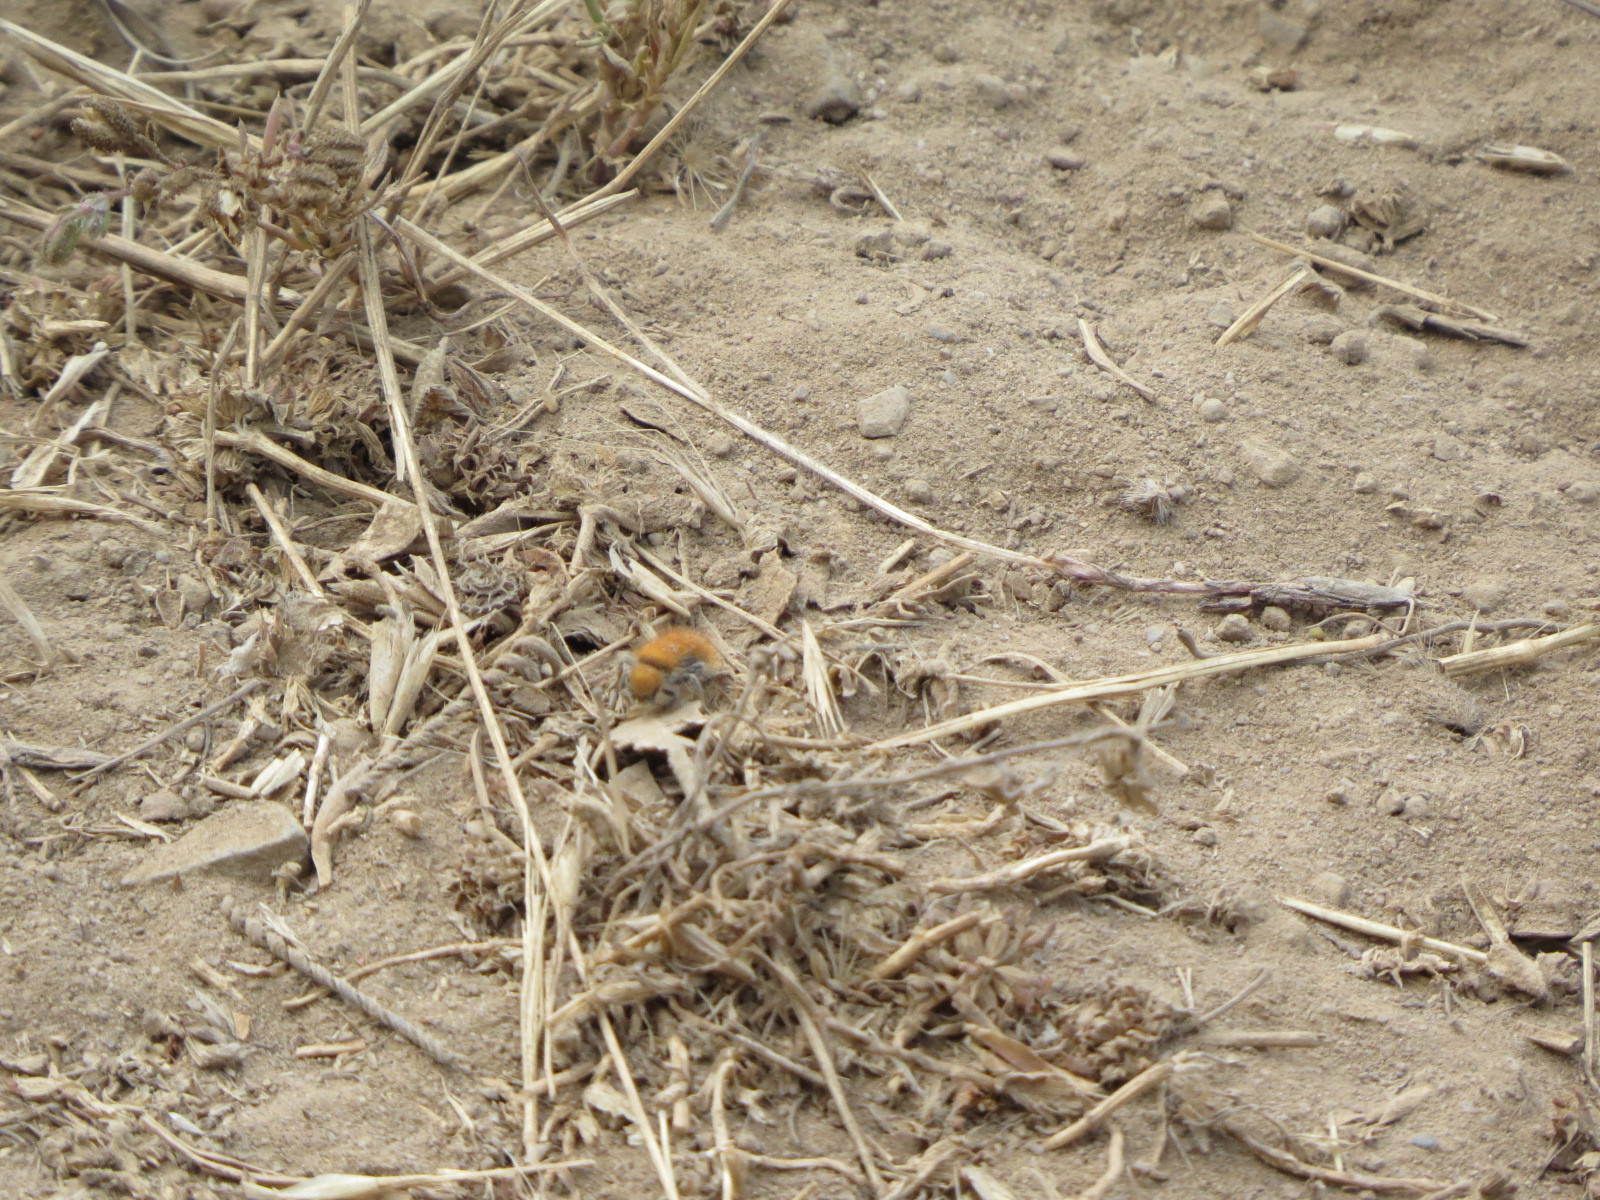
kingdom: Animalia
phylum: Arthropoda
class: Insecta
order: Hymenoptera
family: Mutillidae
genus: Sphaeropthalma
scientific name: Sphaeropthalma unicolor
